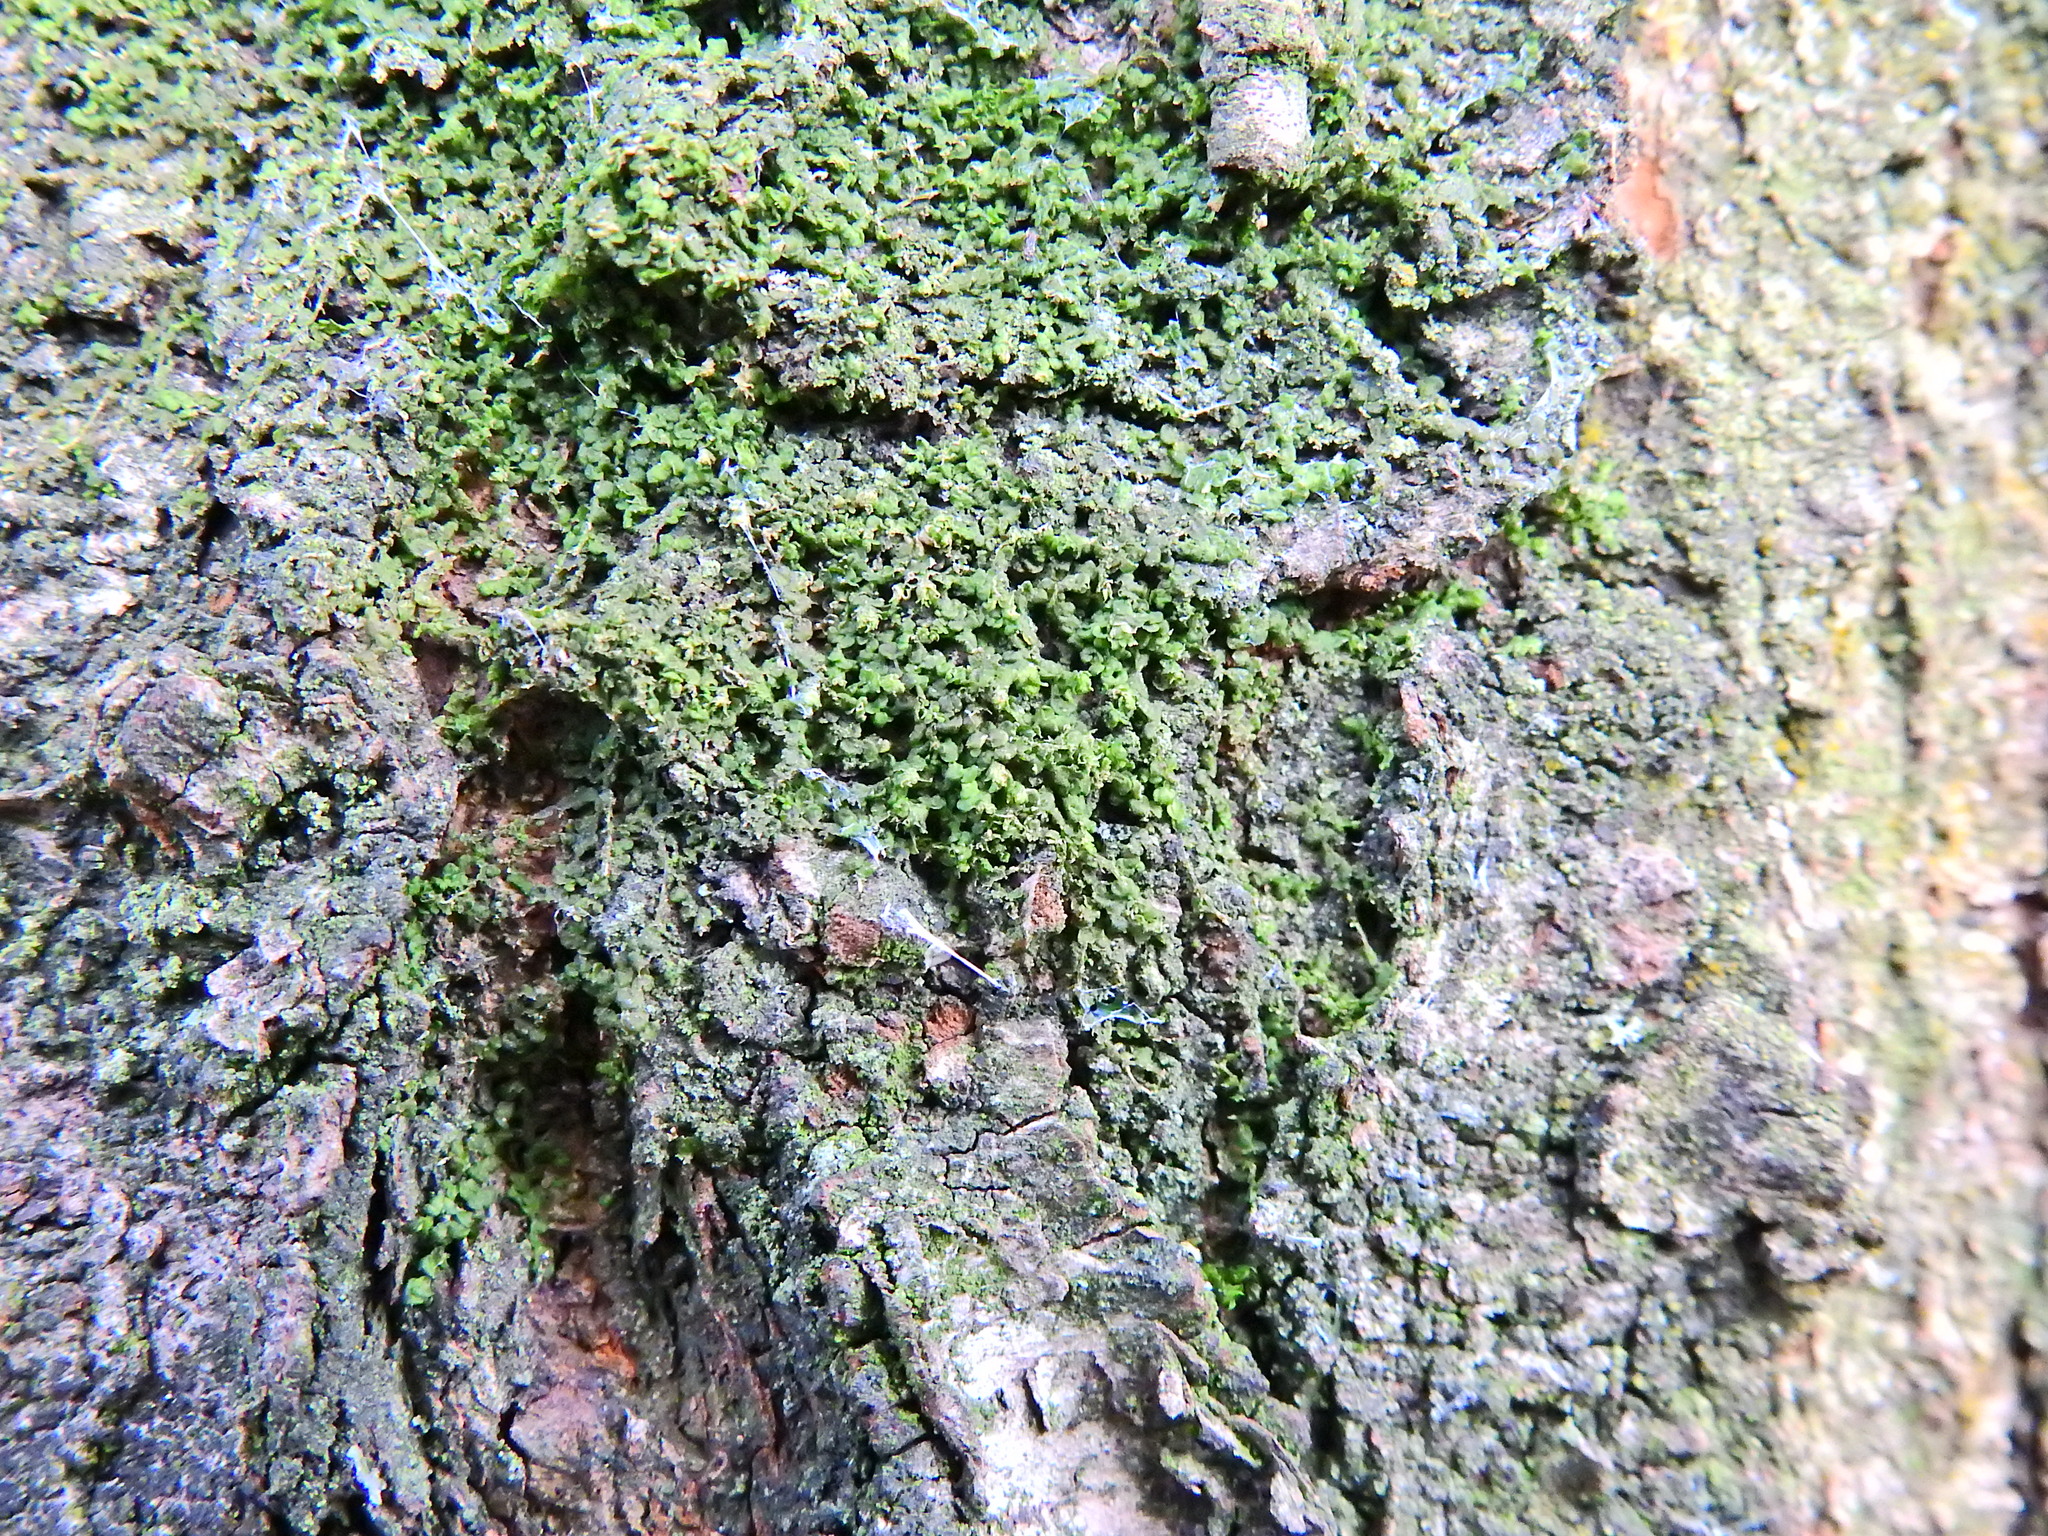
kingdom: Plantae
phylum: Marchantiophyta
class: Jungermanniopsida
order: Porellales
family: Frullaniaceae
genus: Frullania
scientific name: Frullania dilatata
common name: Dilated scalewort
